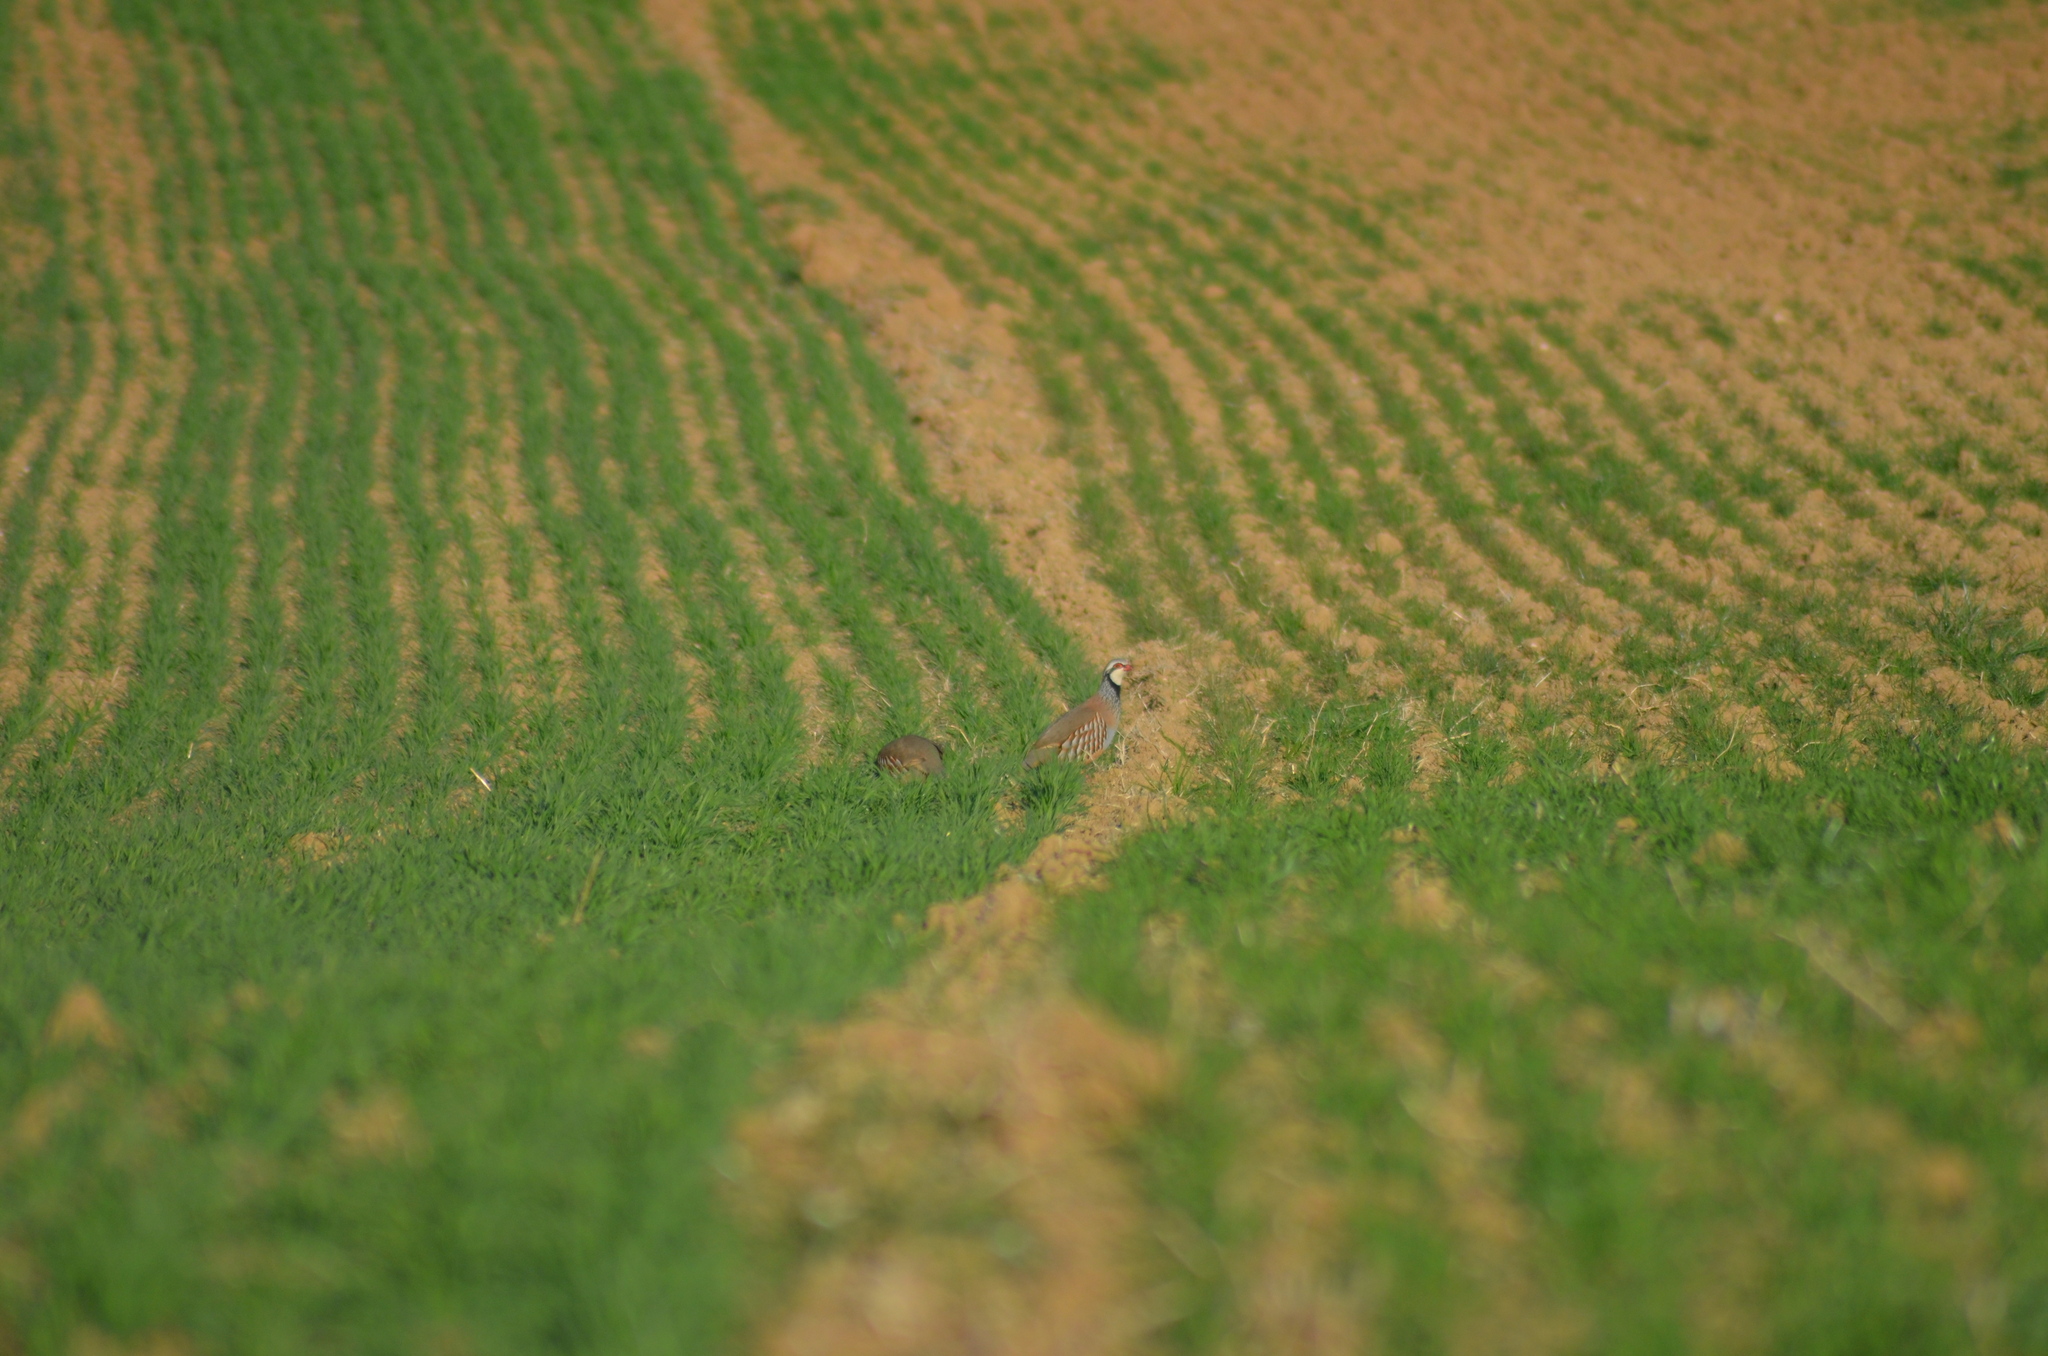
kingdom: Animalia
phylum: Chordata
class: Aves
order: Galliformes
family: Phasianidae
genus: Alectoris
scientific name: Alectoris rufa
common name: Red-legged partridge
